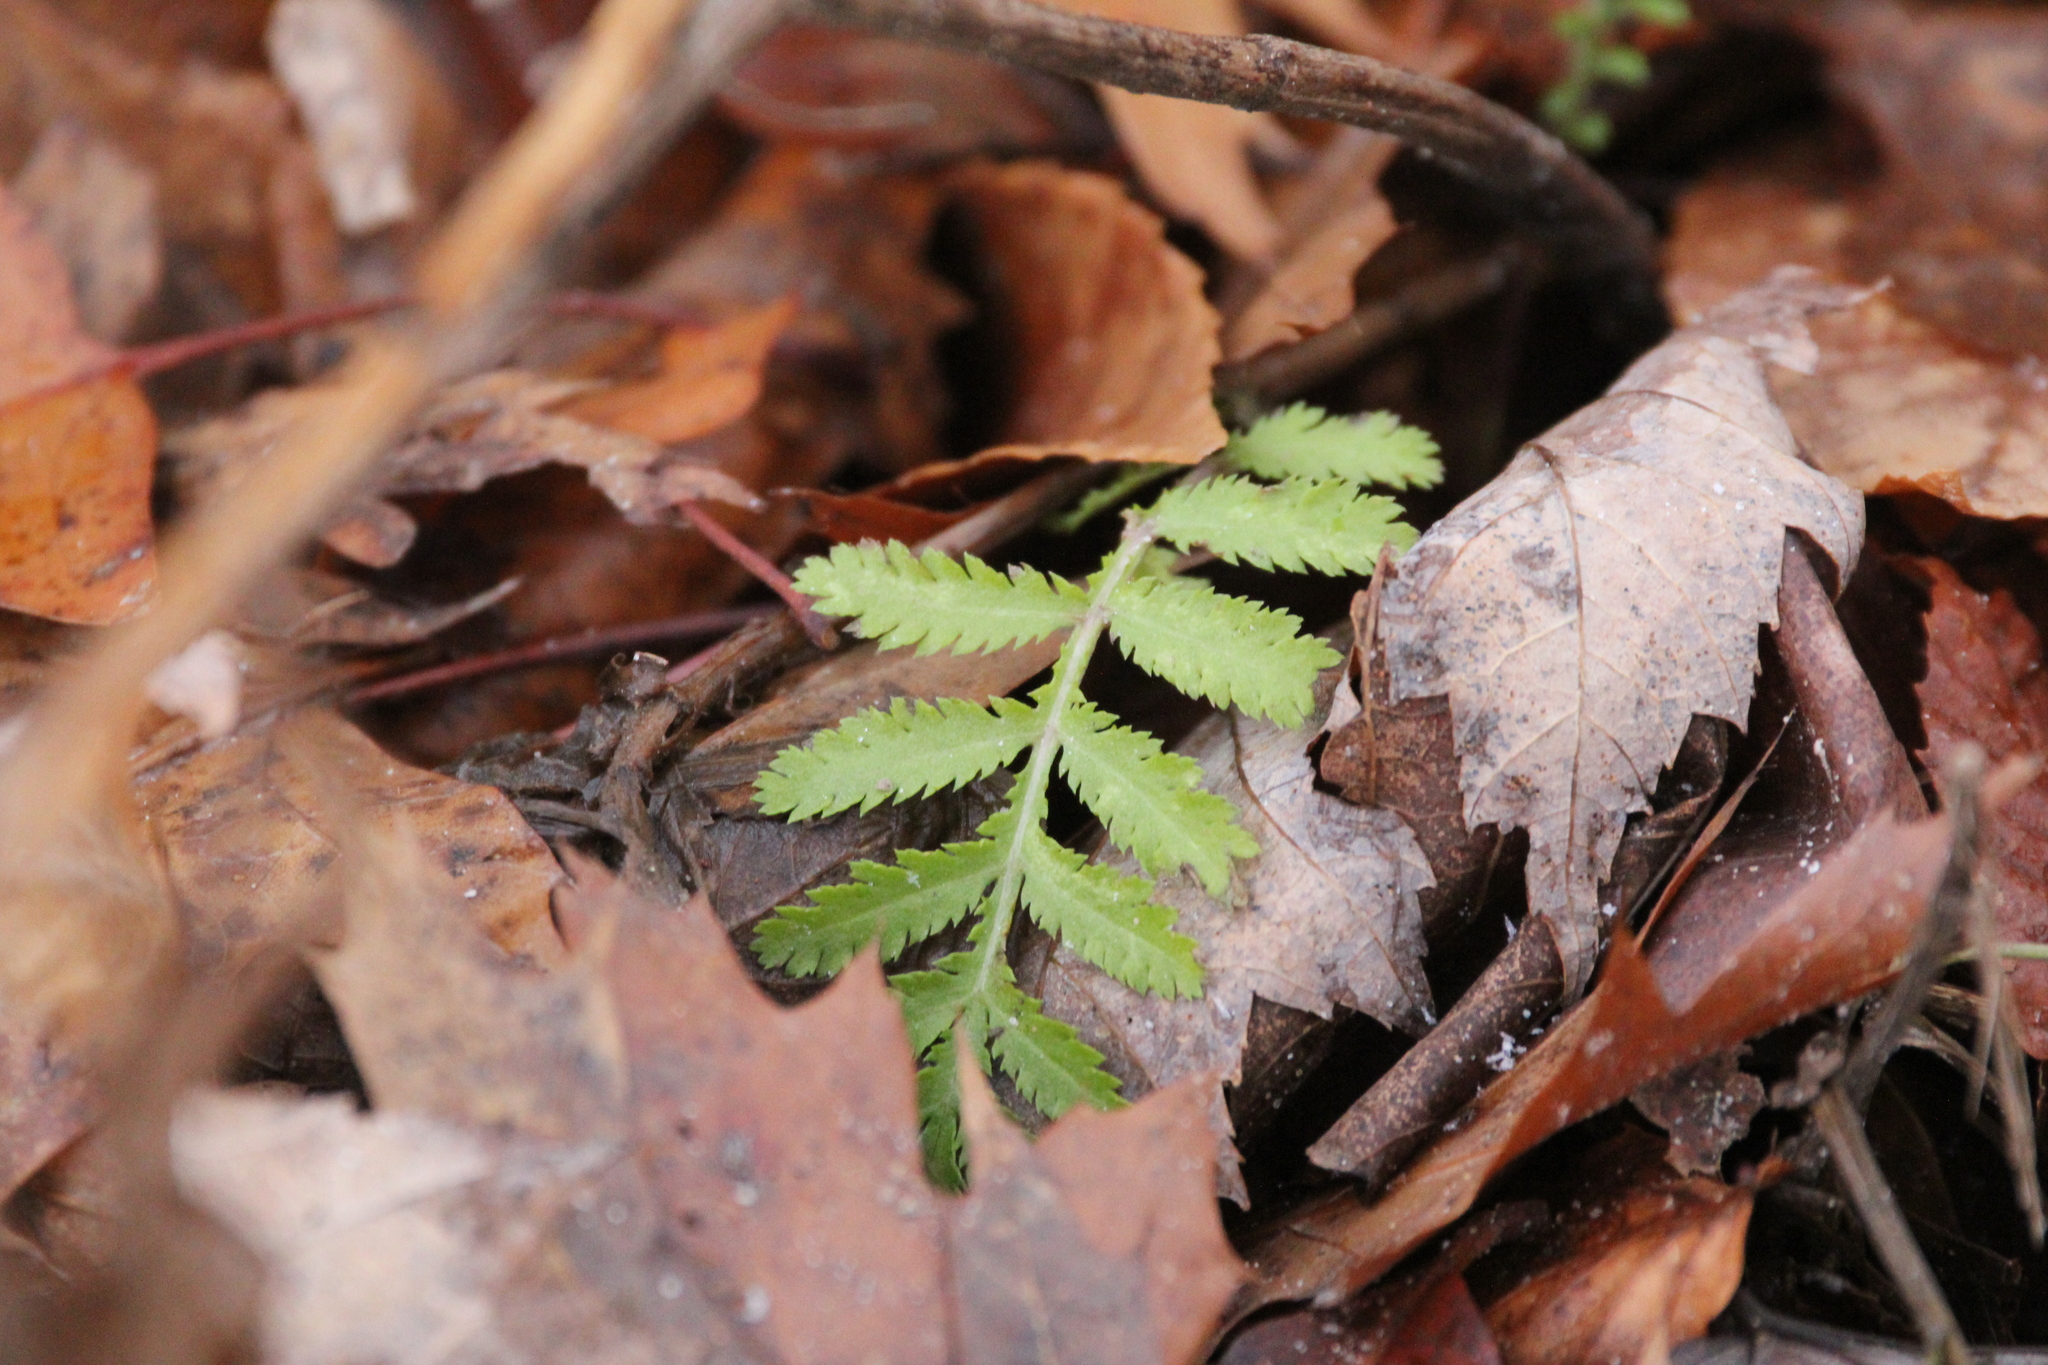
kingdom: Plantae
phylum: Tracheophyta
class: Magnoliopsida
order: Asterales
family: Asteraceae
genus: Tanacetum
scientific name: Tanacetum vulgare
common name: Common tansy
